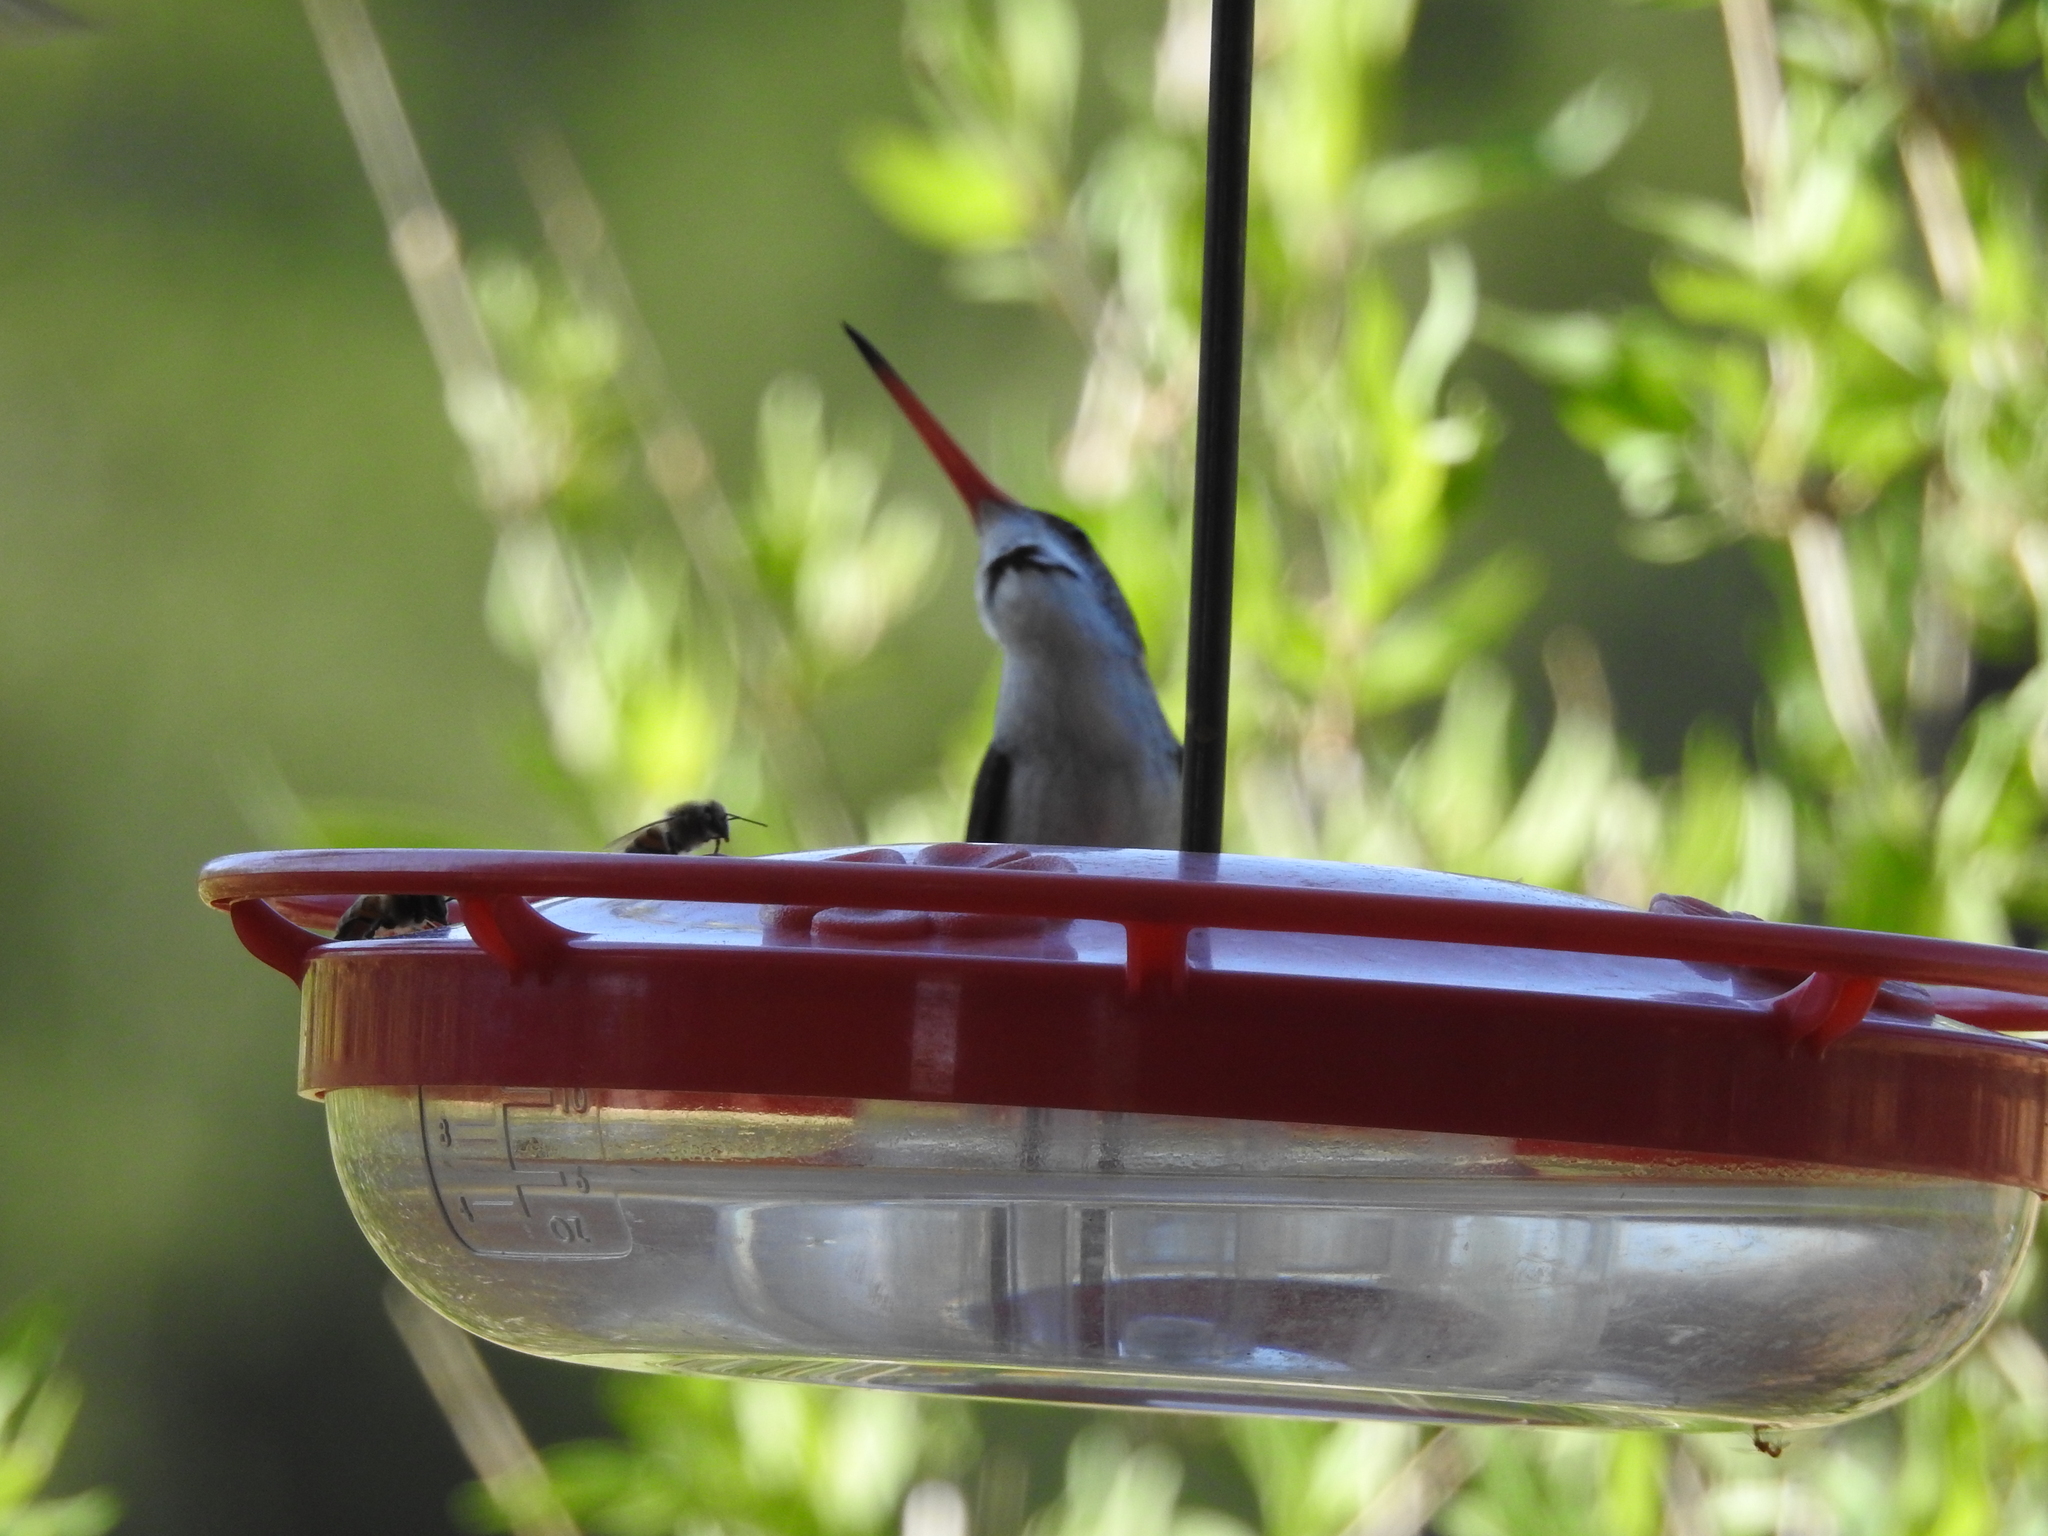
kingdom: Animalia
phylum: Chordata
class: Aves
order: Apodiformes
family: Trochilidae
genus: Leucolia
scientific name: Leucolia violiceps
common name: Violet-crowned hummingbird
